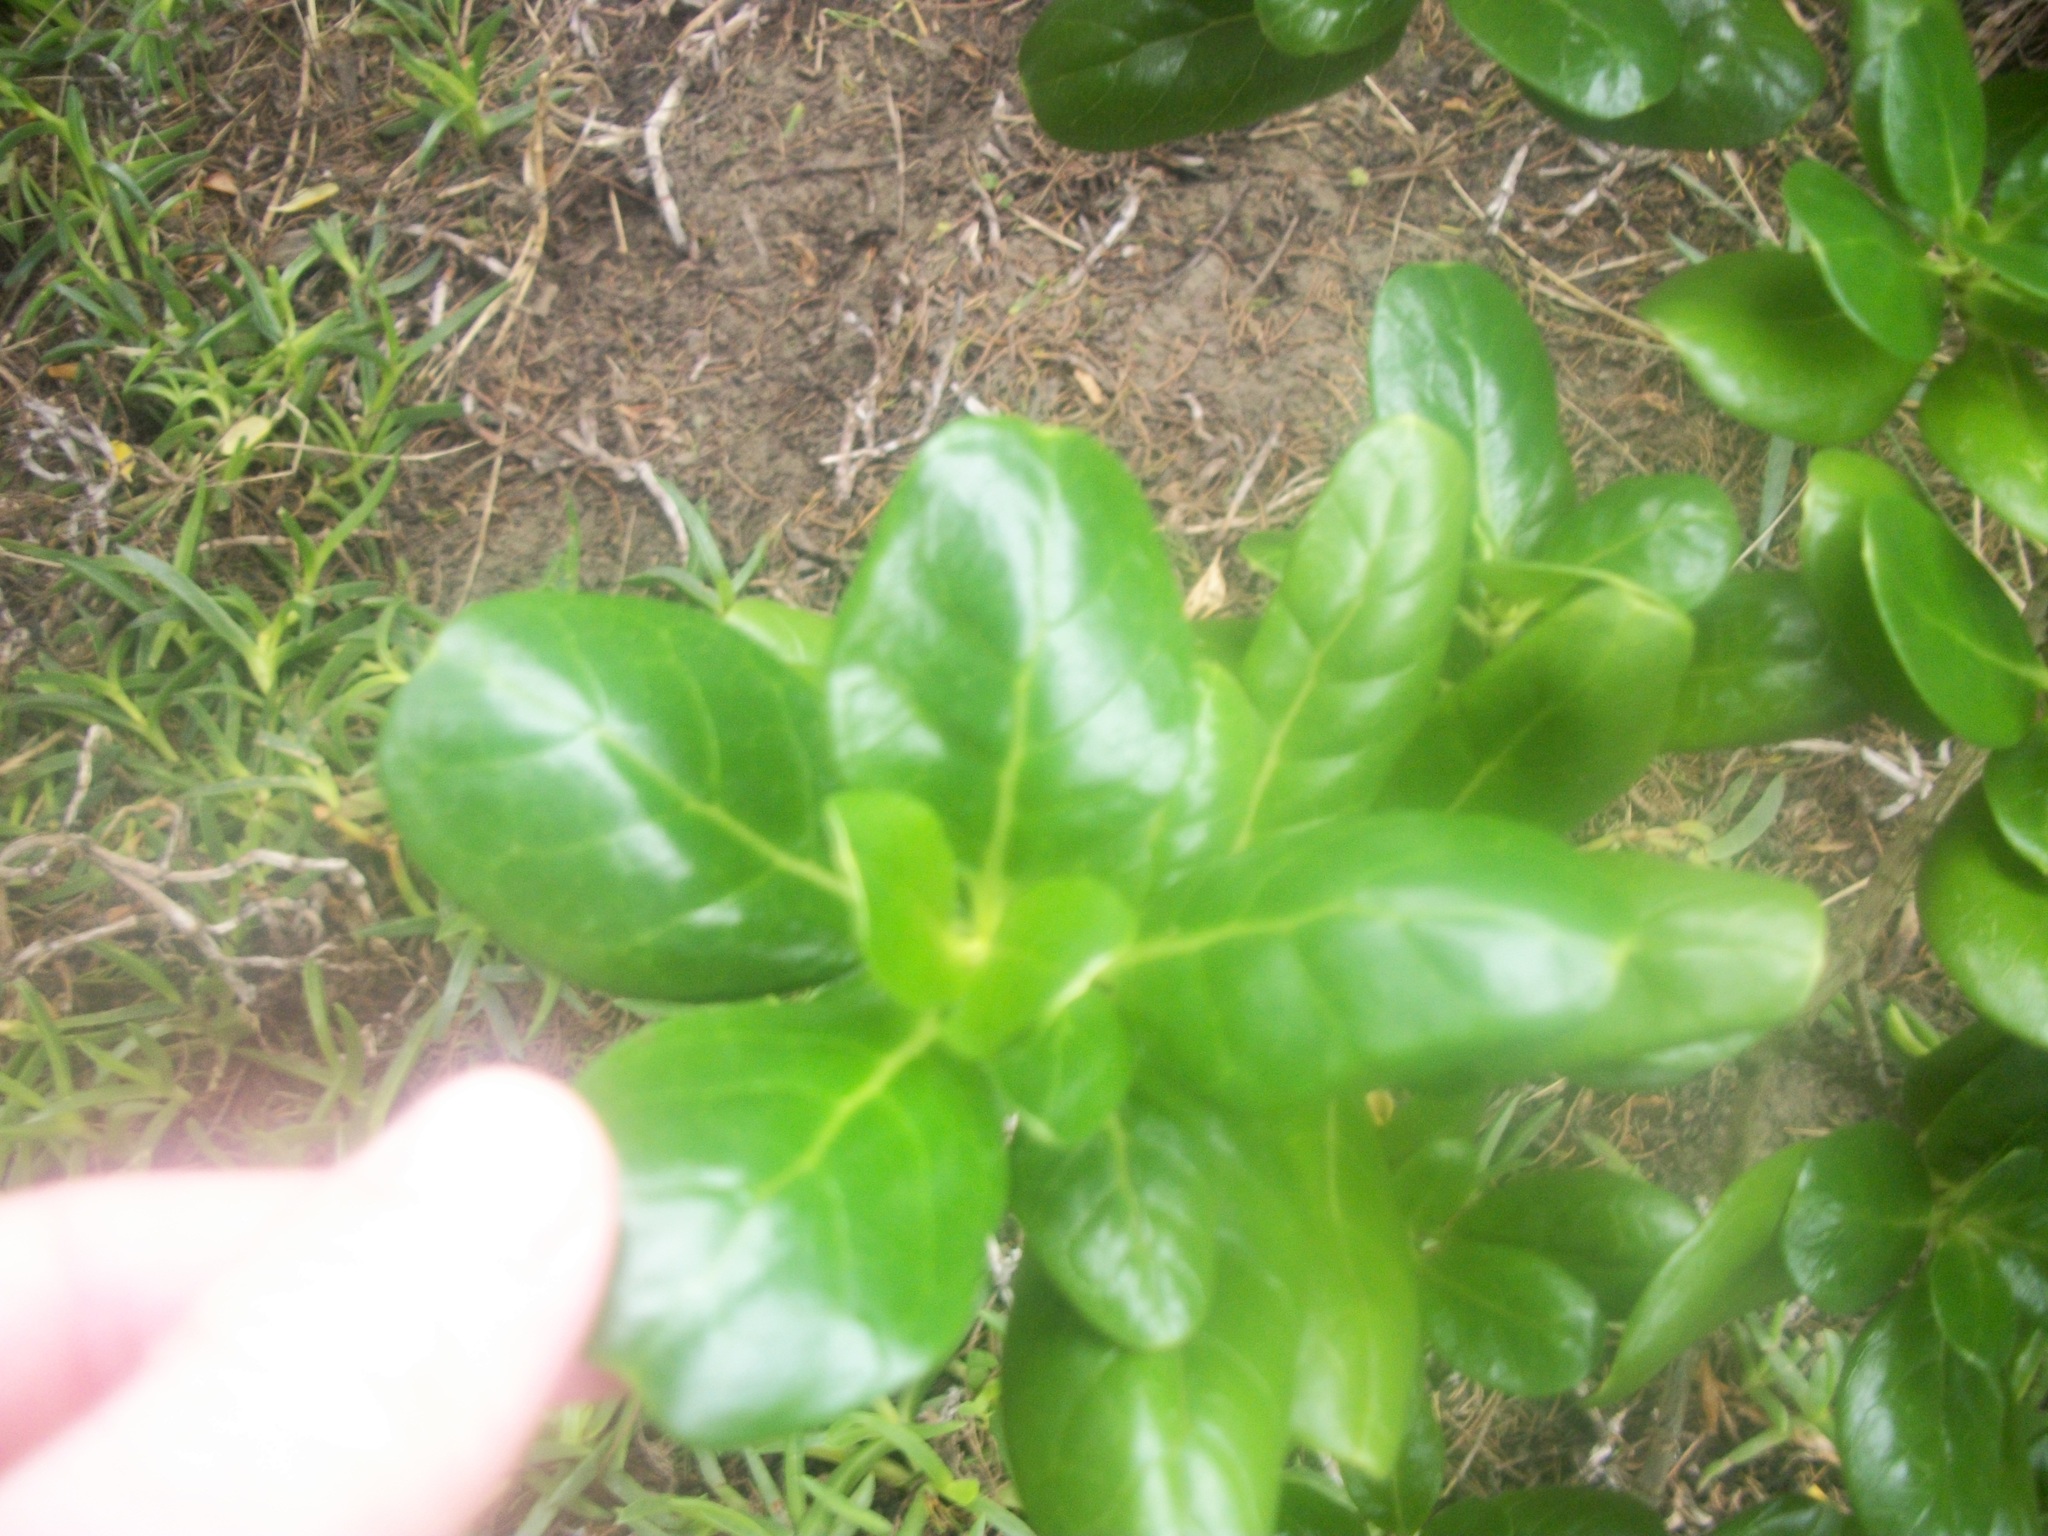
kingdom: Plantae
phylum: Tracheophyta
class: Magnoliopsida
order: Gentianales
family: Rubiaceae
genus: Coprosma
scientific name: Coprosma repens
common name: Tree bedstraw
